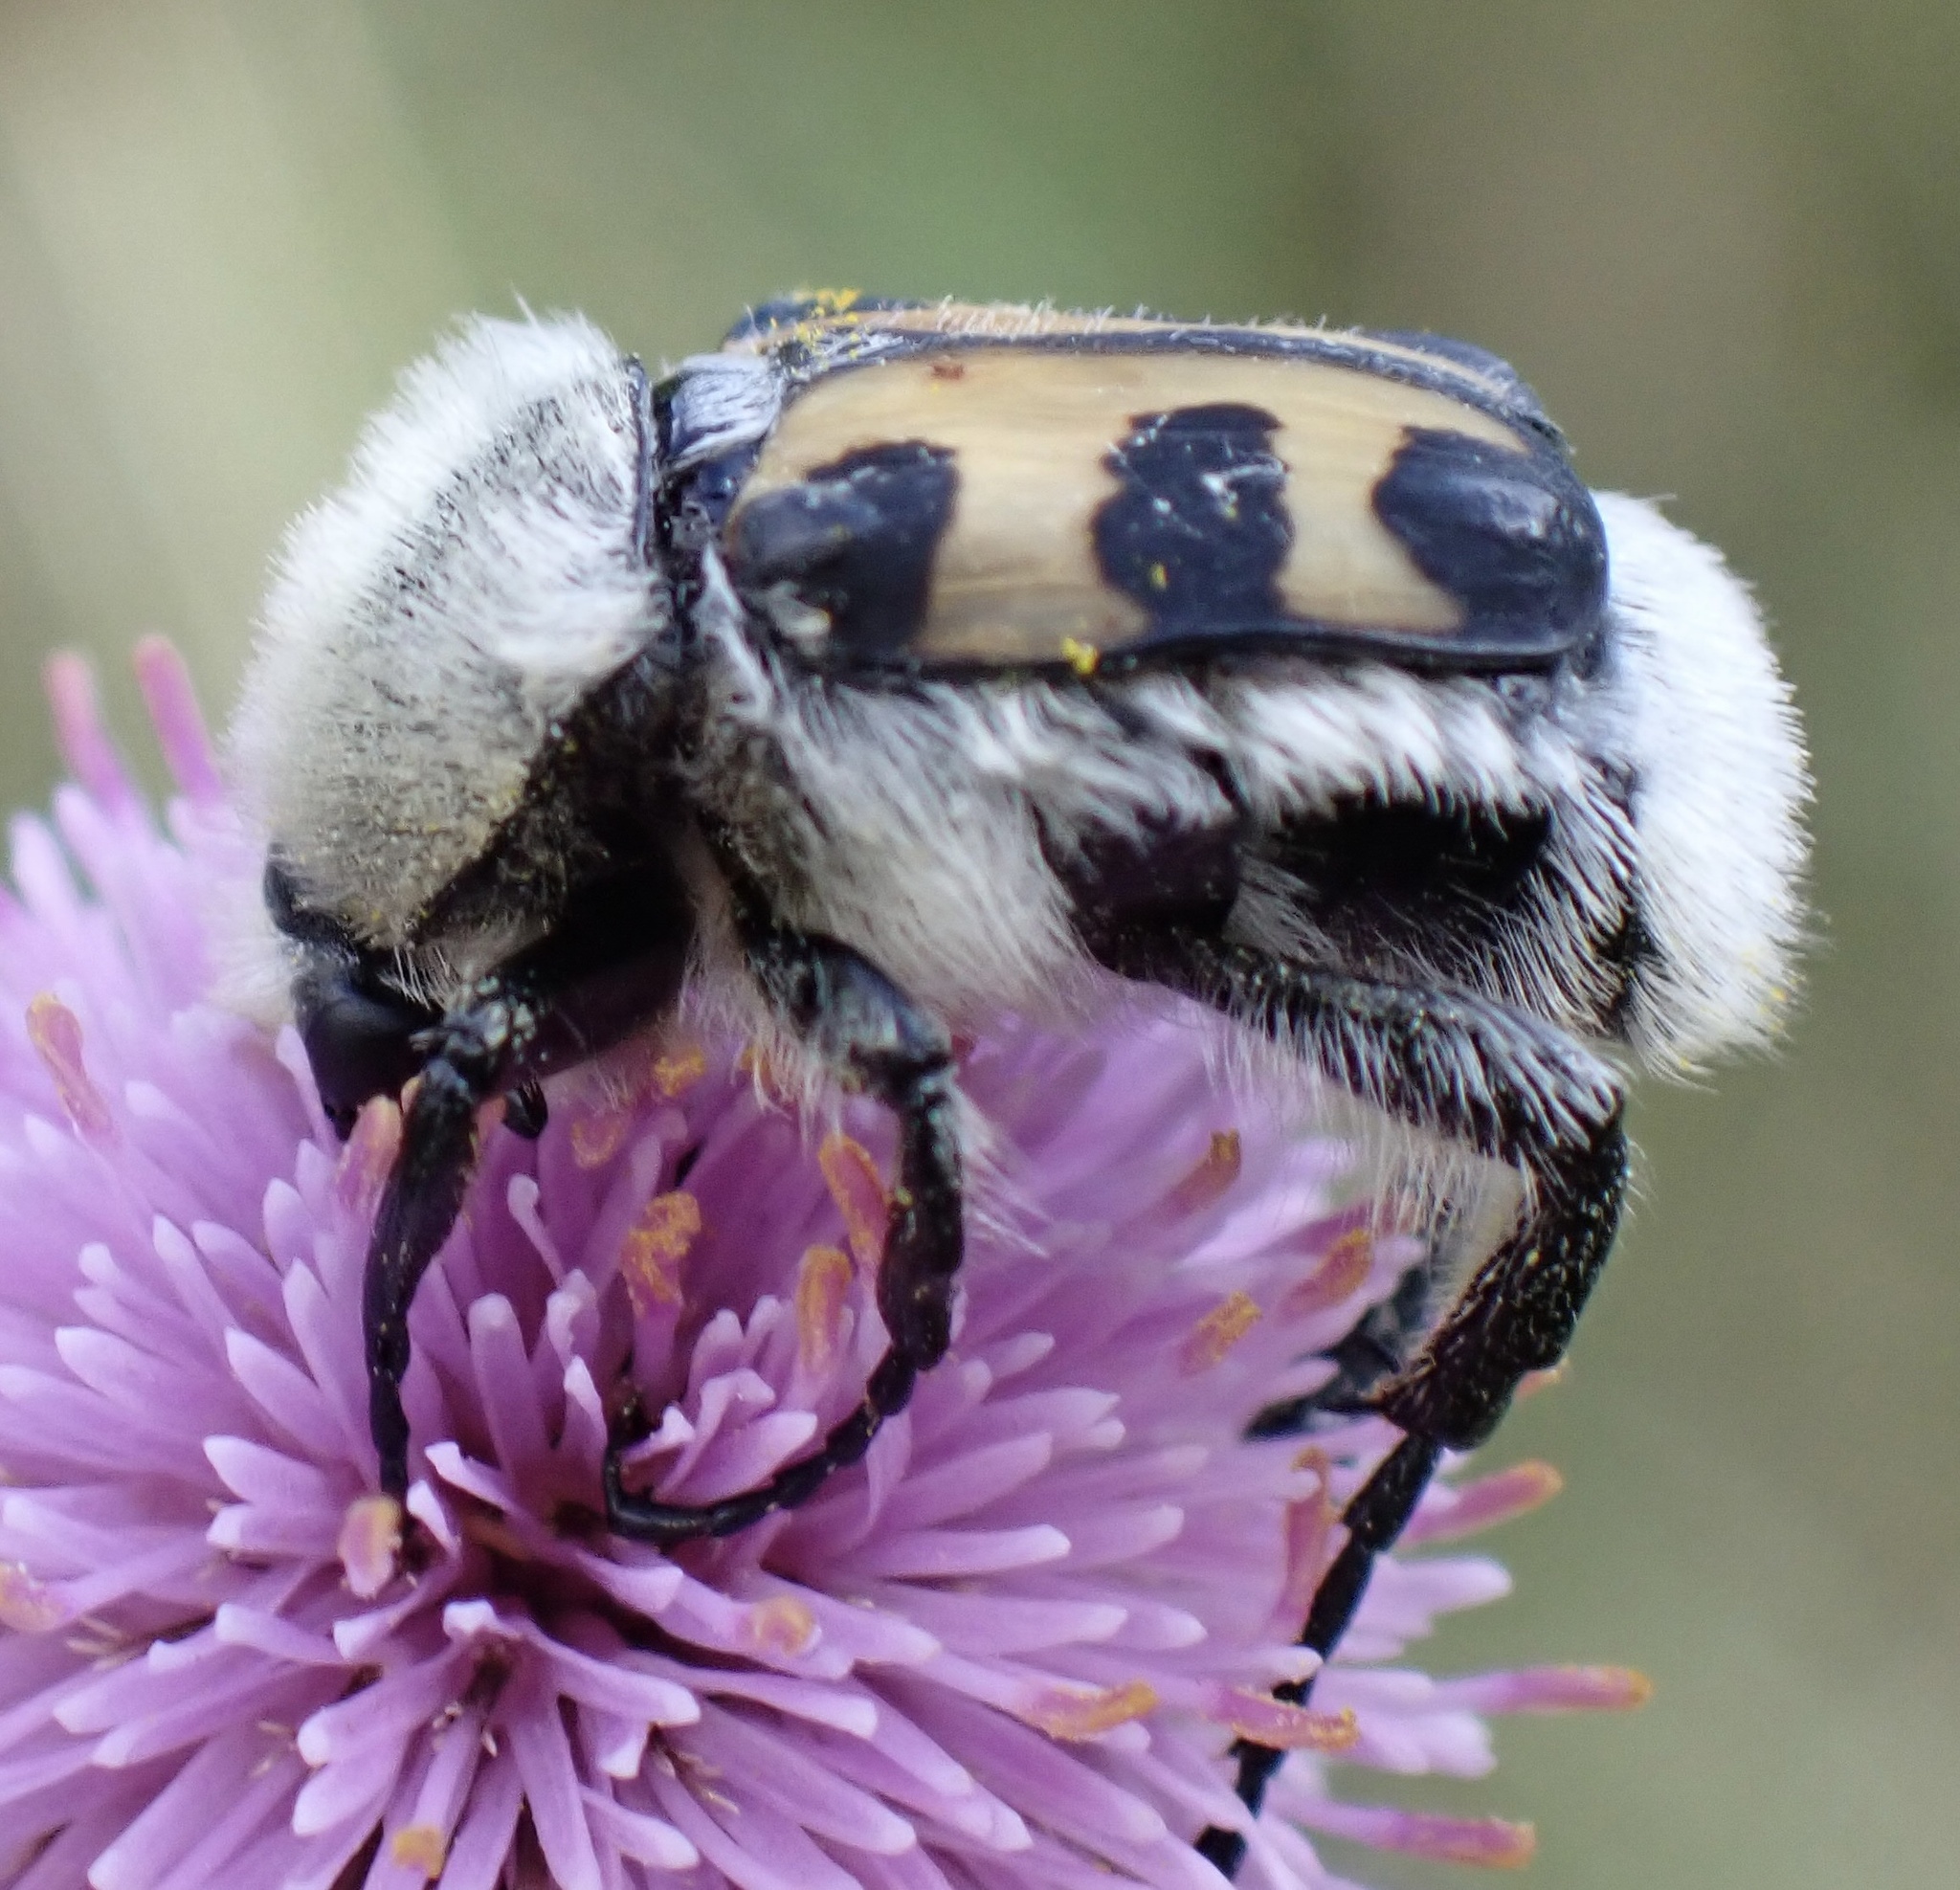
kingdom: Animalia
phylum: Arthropoda
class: Insecta
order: Coleoptera
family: Scarabaeidae
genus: Trichius
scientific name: Trichius gallicus
